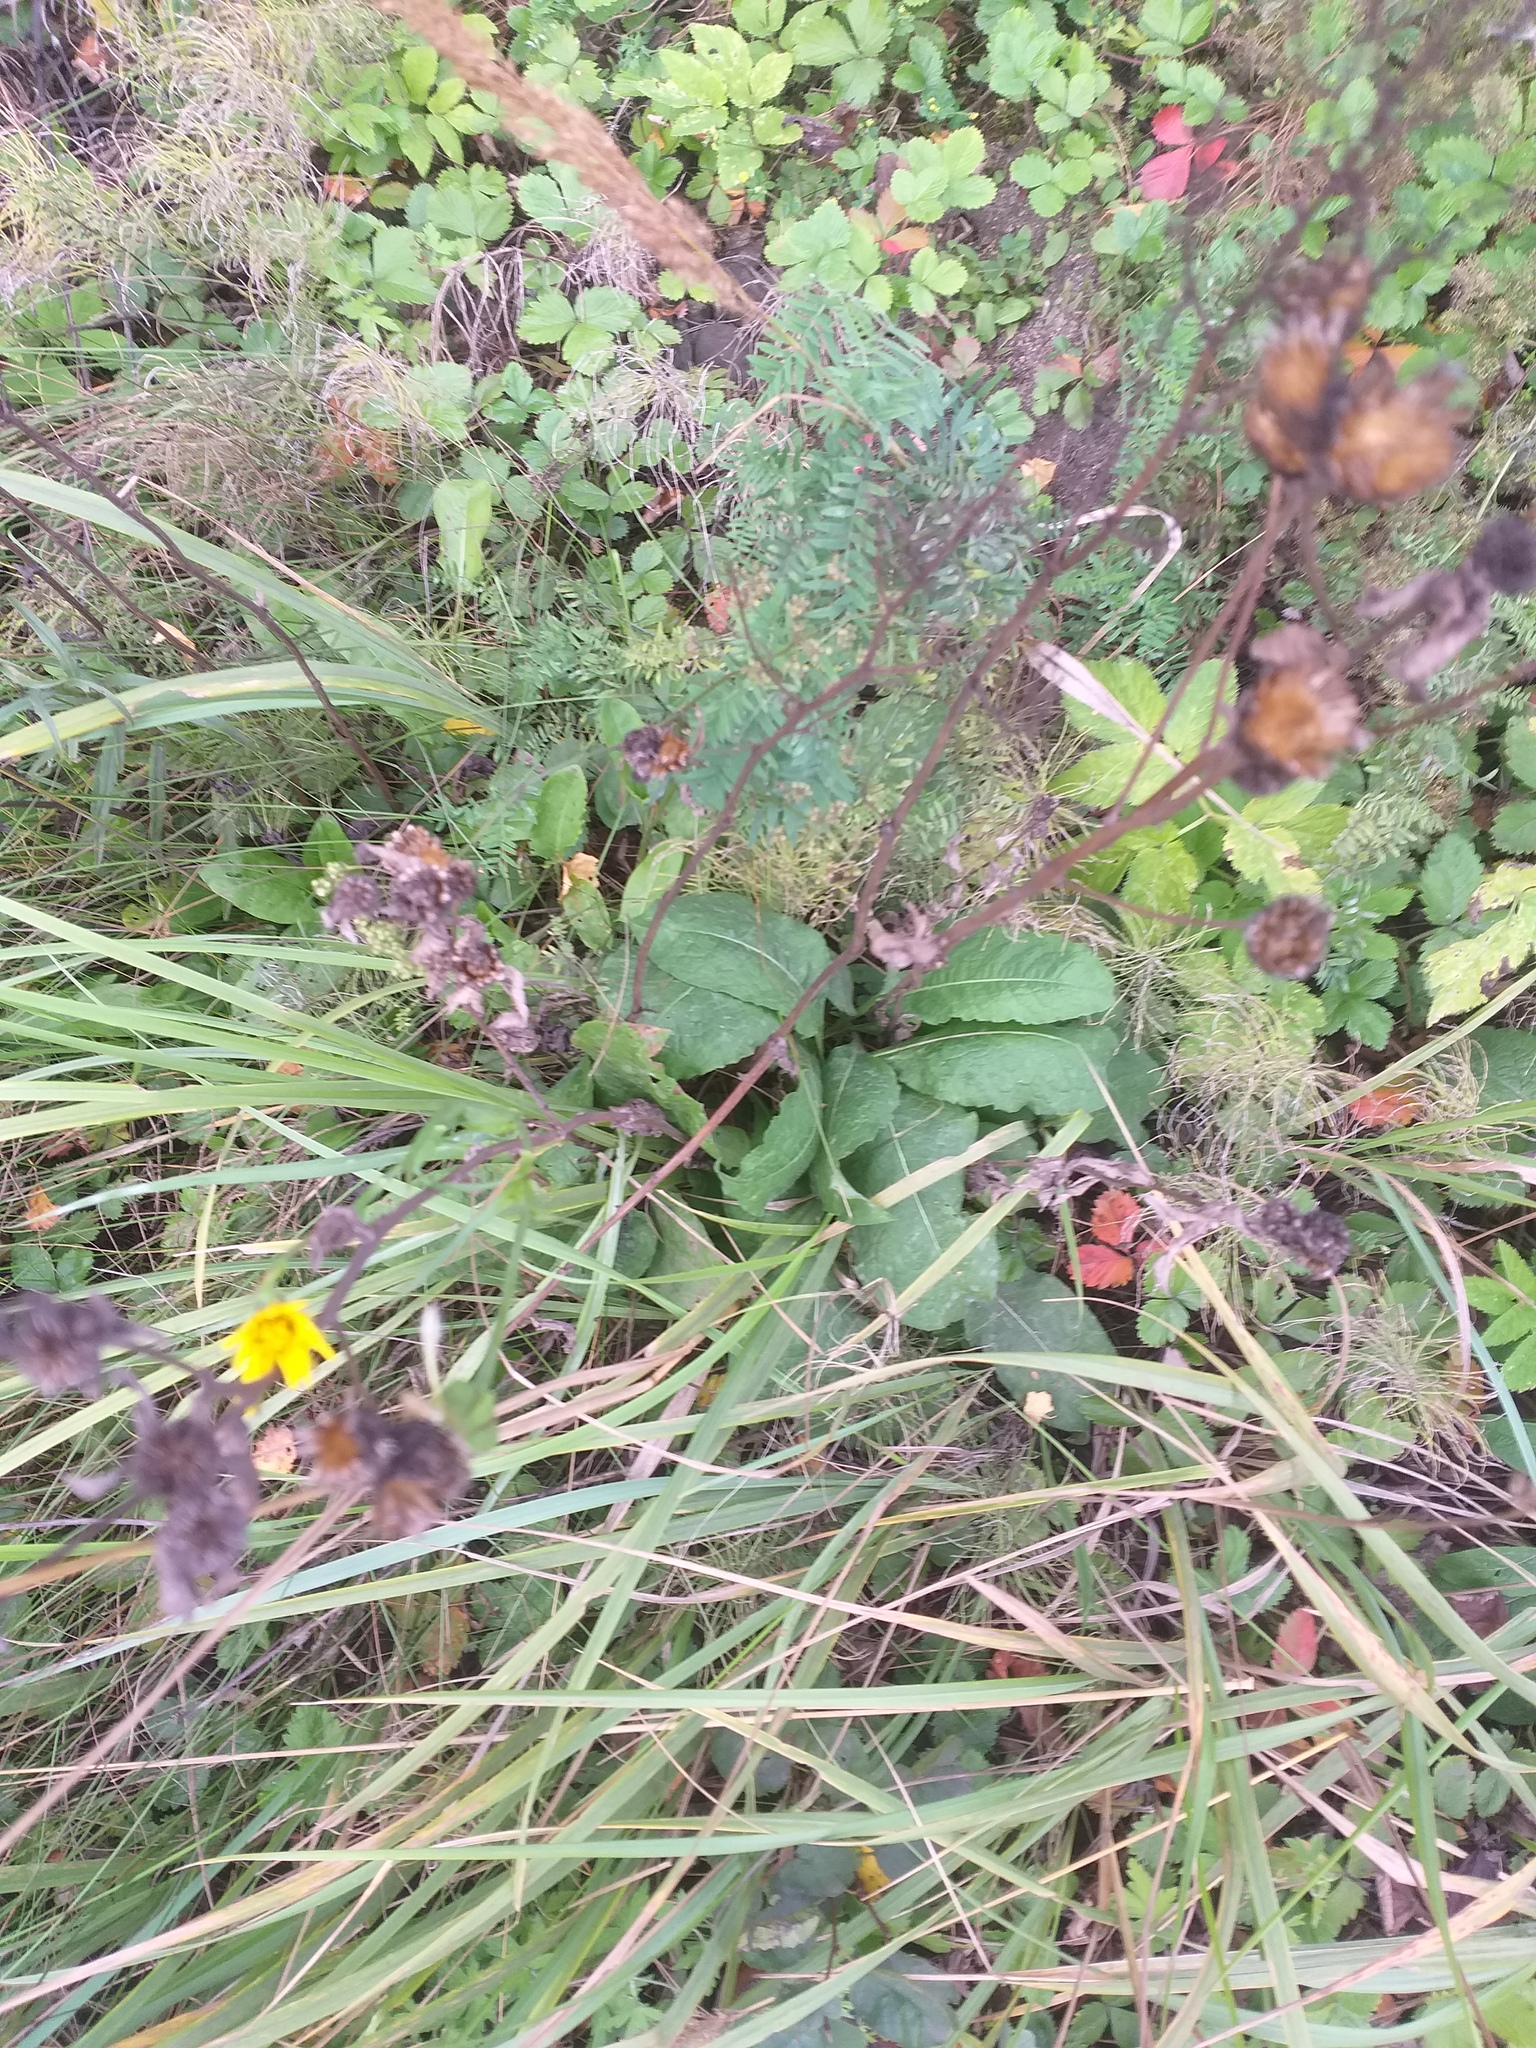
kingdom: Plantae
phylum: Tracheophyta
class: Magnoliopsida
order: Asterales
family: Asteraceae
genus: Centaurea
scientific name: Centaurea phrygia
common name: Wig knapweed
